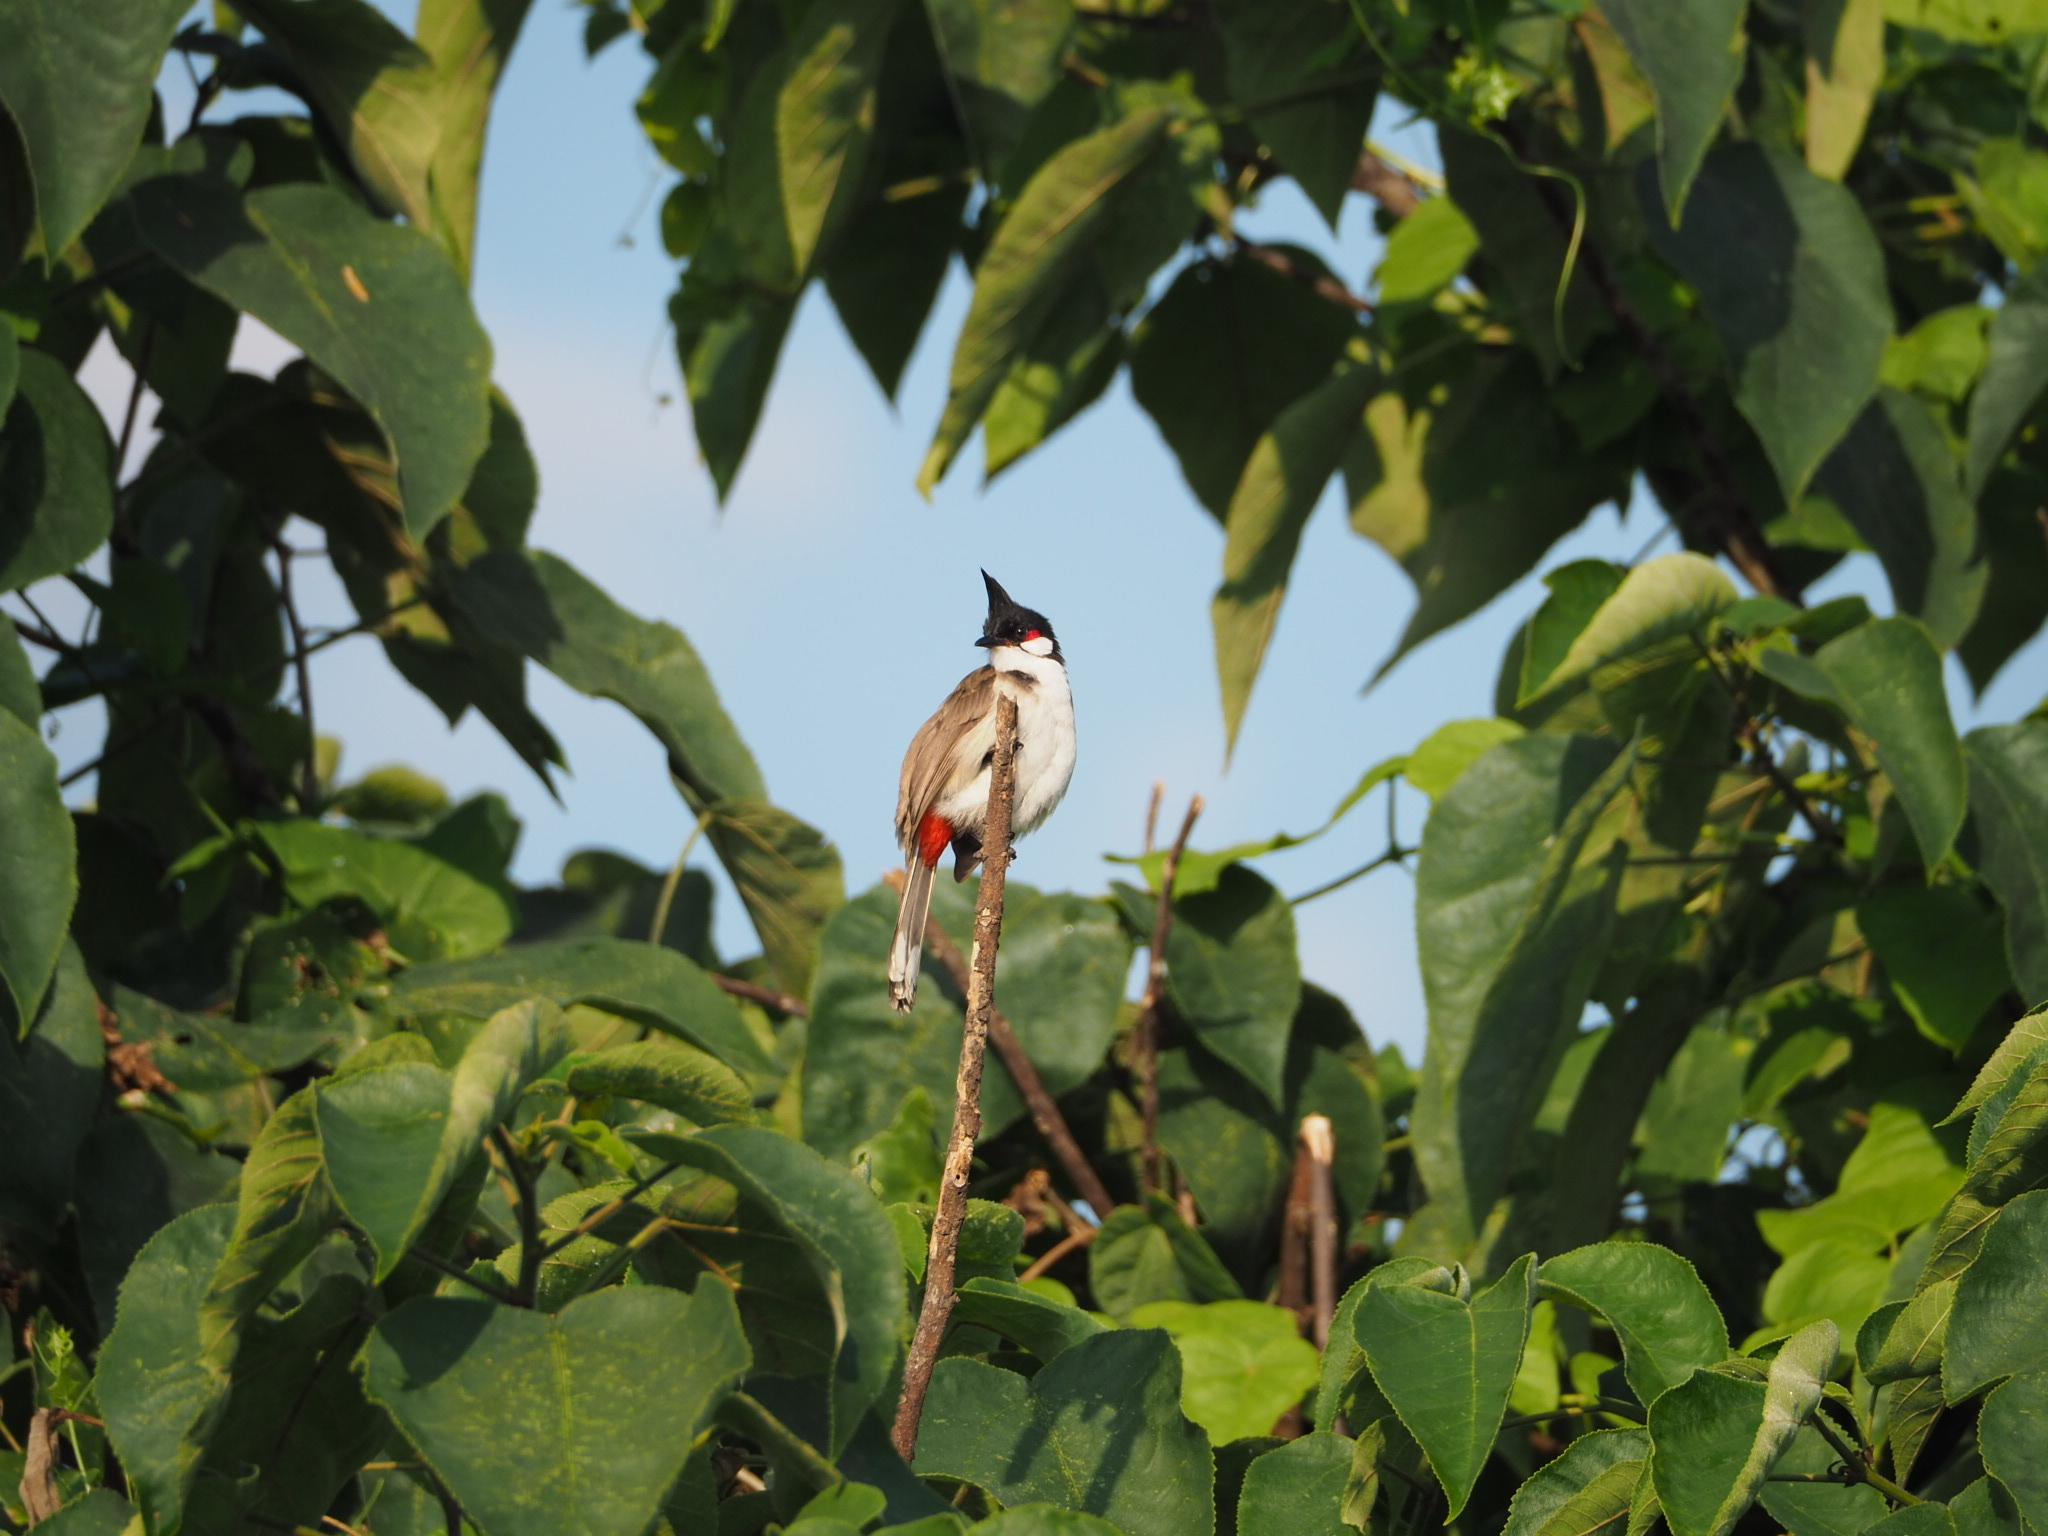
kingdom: Animalia
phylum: Chordata
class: Aves
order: Passeriformes
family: Pycnonotidae
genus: Pycnonotus
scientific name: Pycnonotus jocosus
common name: Red-whiskered bulbul
